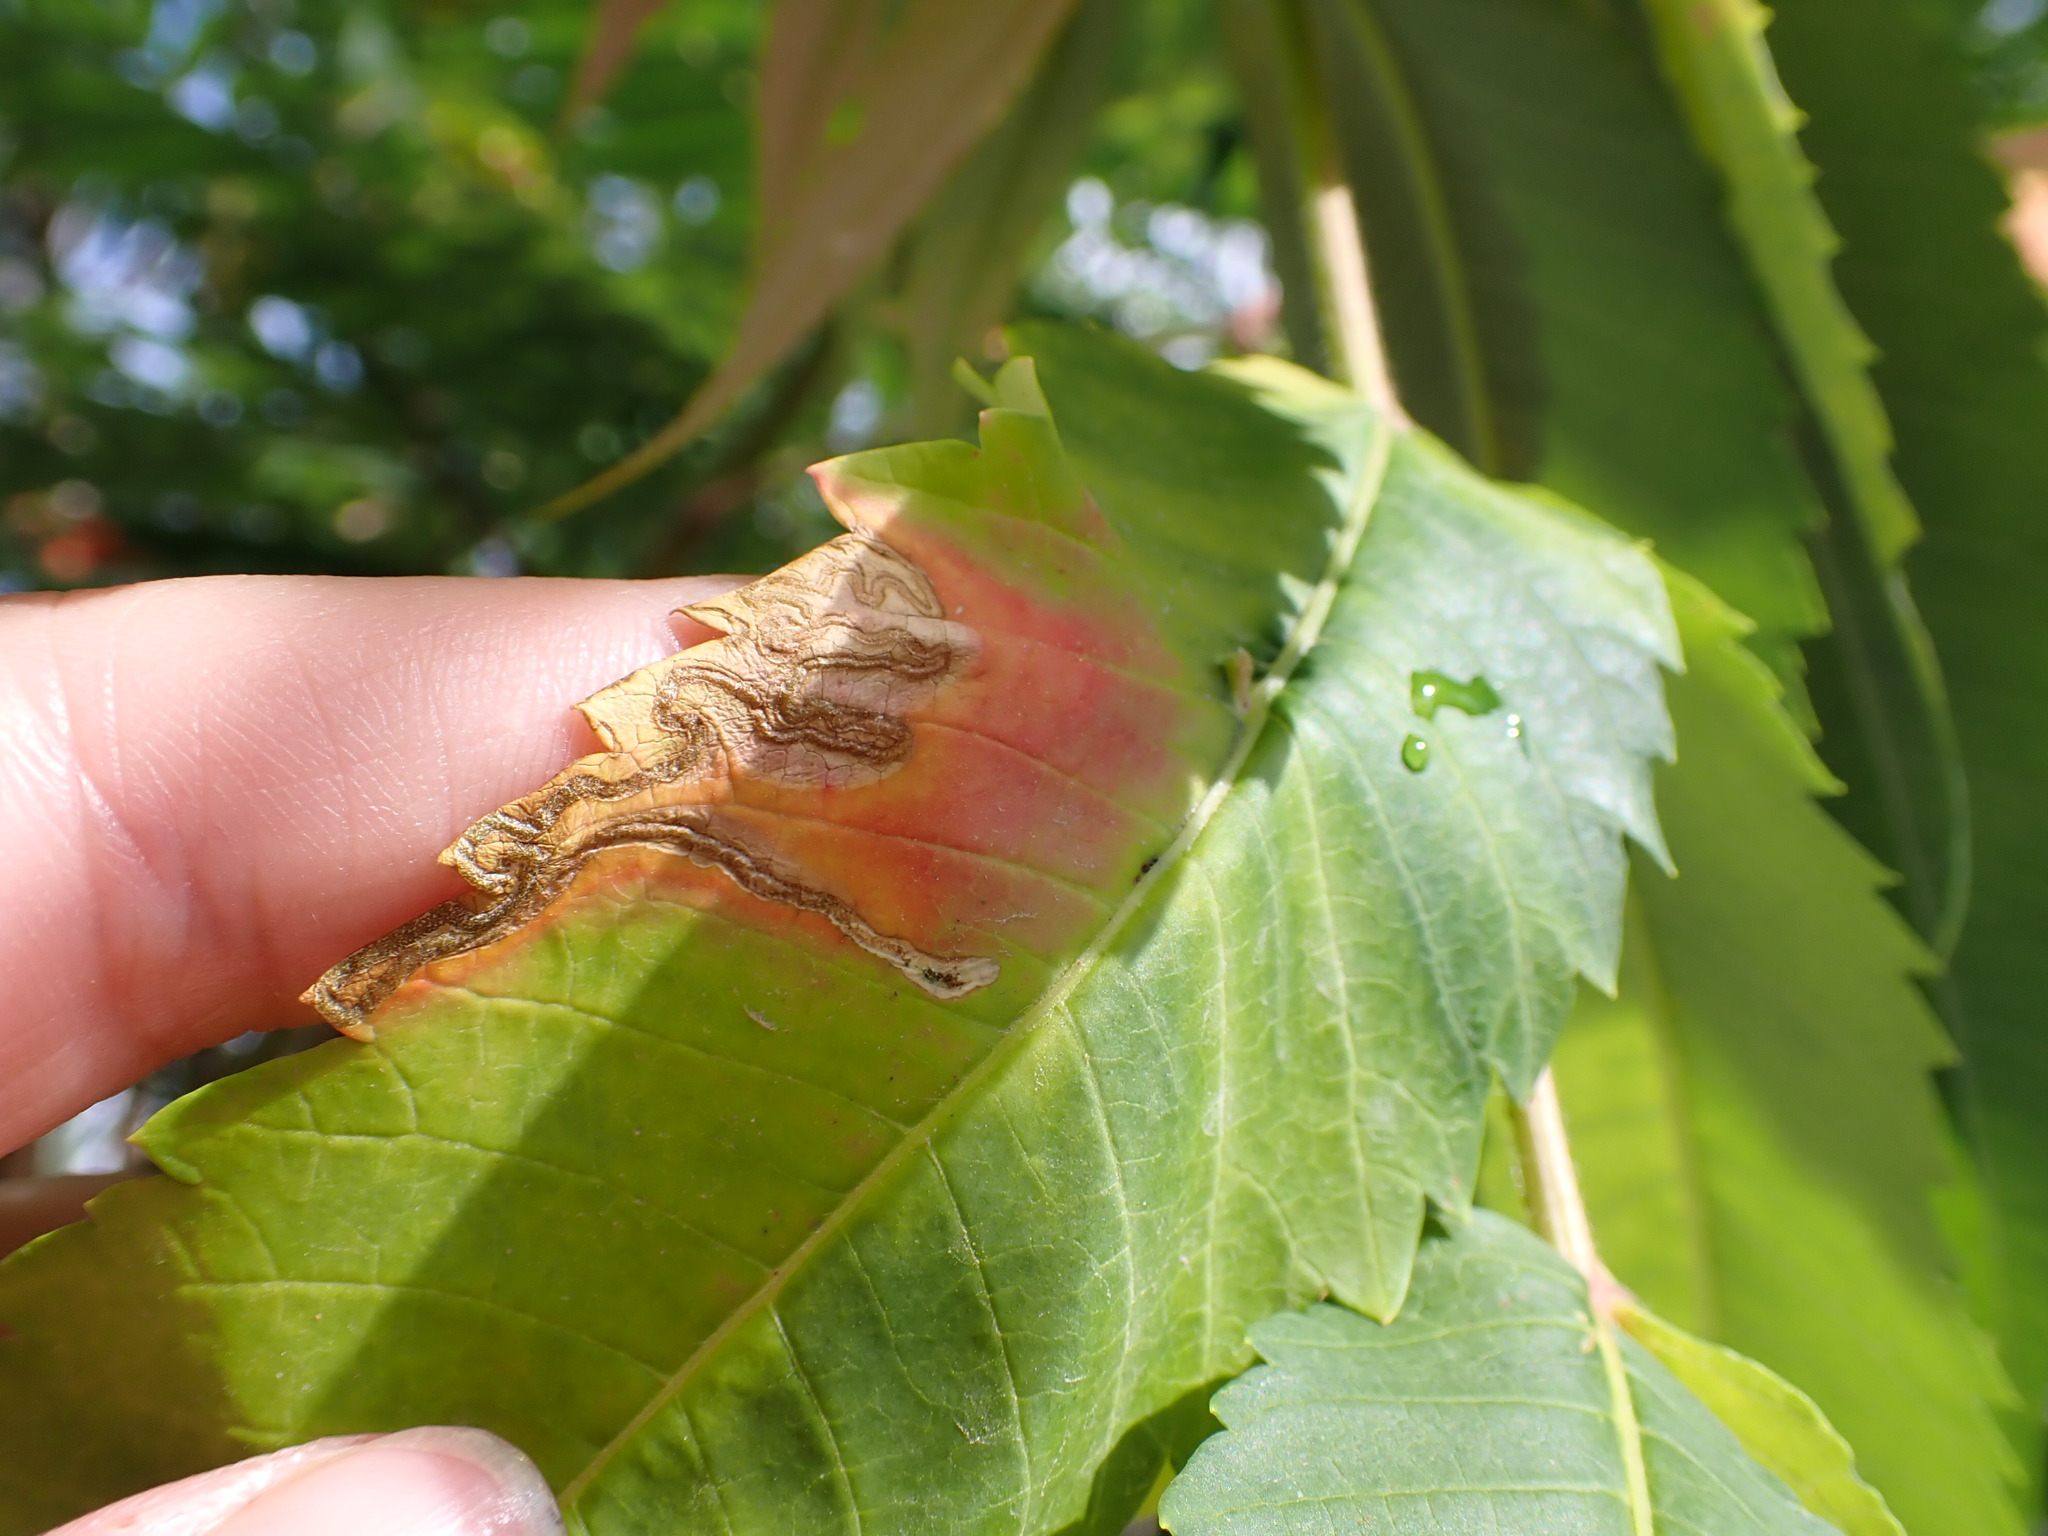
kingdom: Animalia
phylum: Arthropoda
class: Insecta
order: Lepidoptera
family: Nepticulidae
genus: Stigmella
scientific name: Stigmella intermedia
